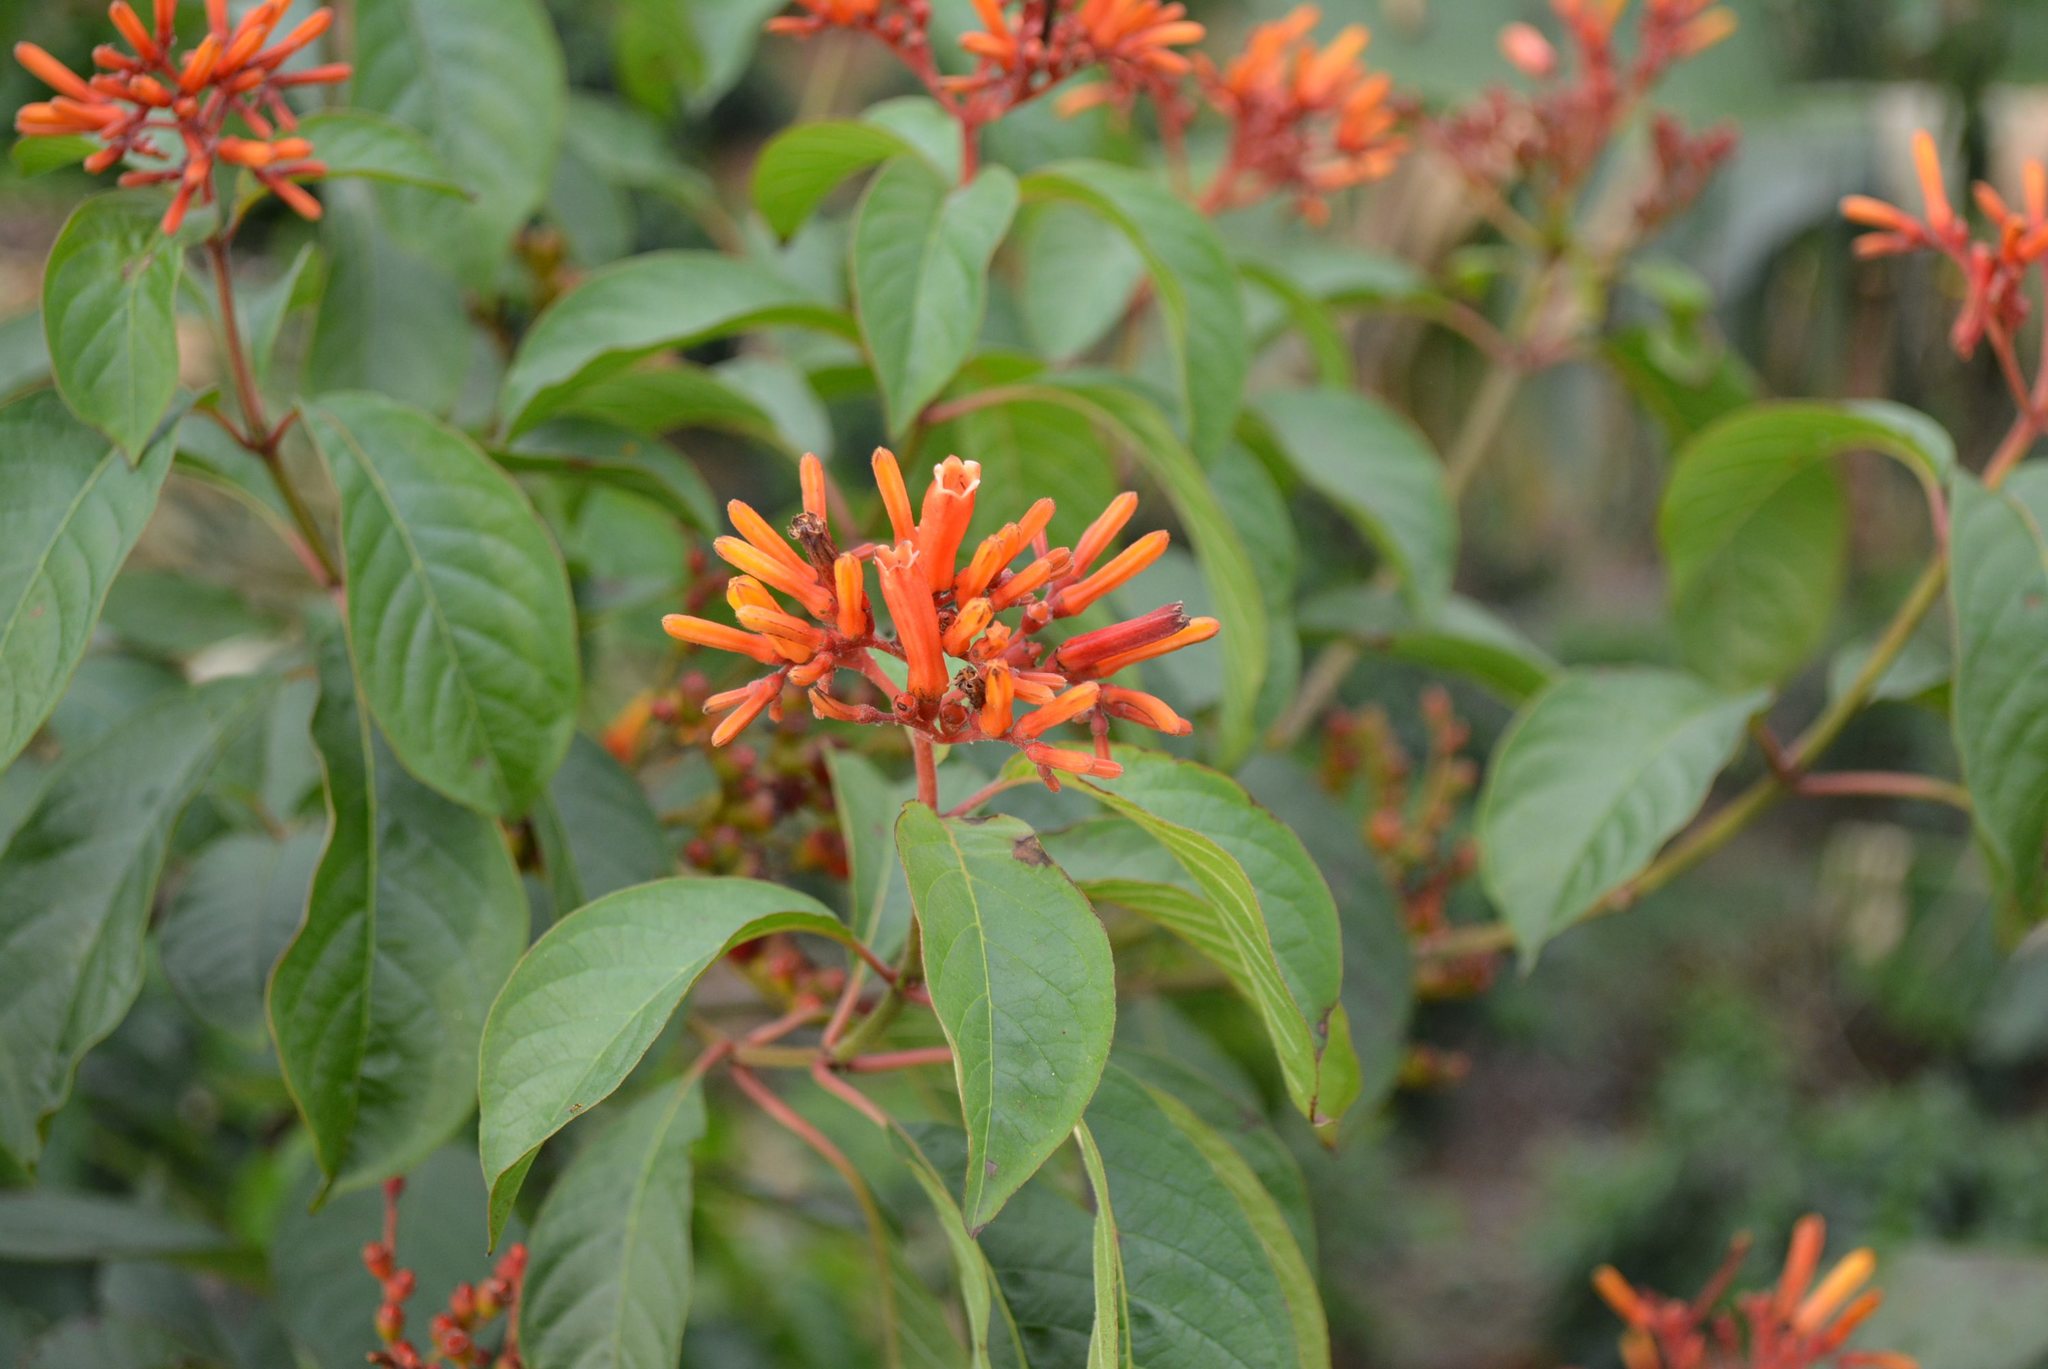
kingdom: Plantae
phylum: Tracheophyta
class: Magnoliopsida
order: Gentianales
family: Rubiaceae
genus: Hamelia
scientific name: Hamelia patens
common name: Redhead
